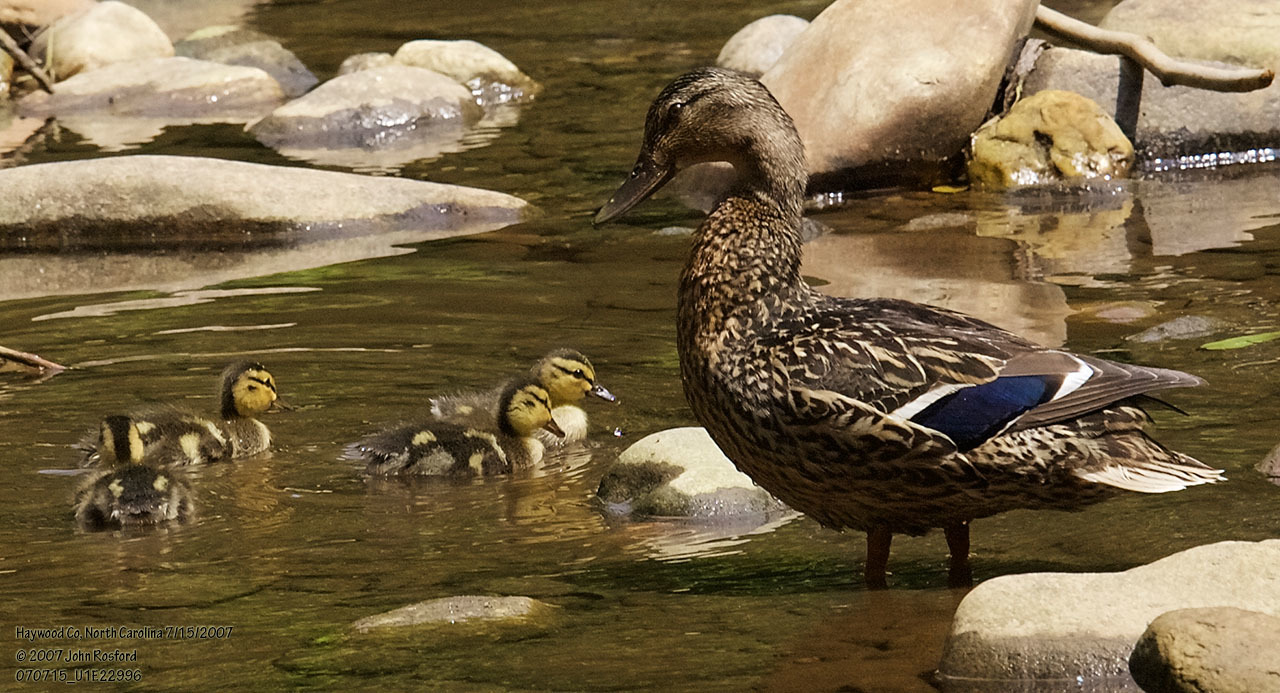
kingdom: Animalia
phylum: Chordata
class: Aves
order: Anseriformes
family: Anatidae
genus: Anas
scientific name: Anas platyrhynchos
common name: Mallard
